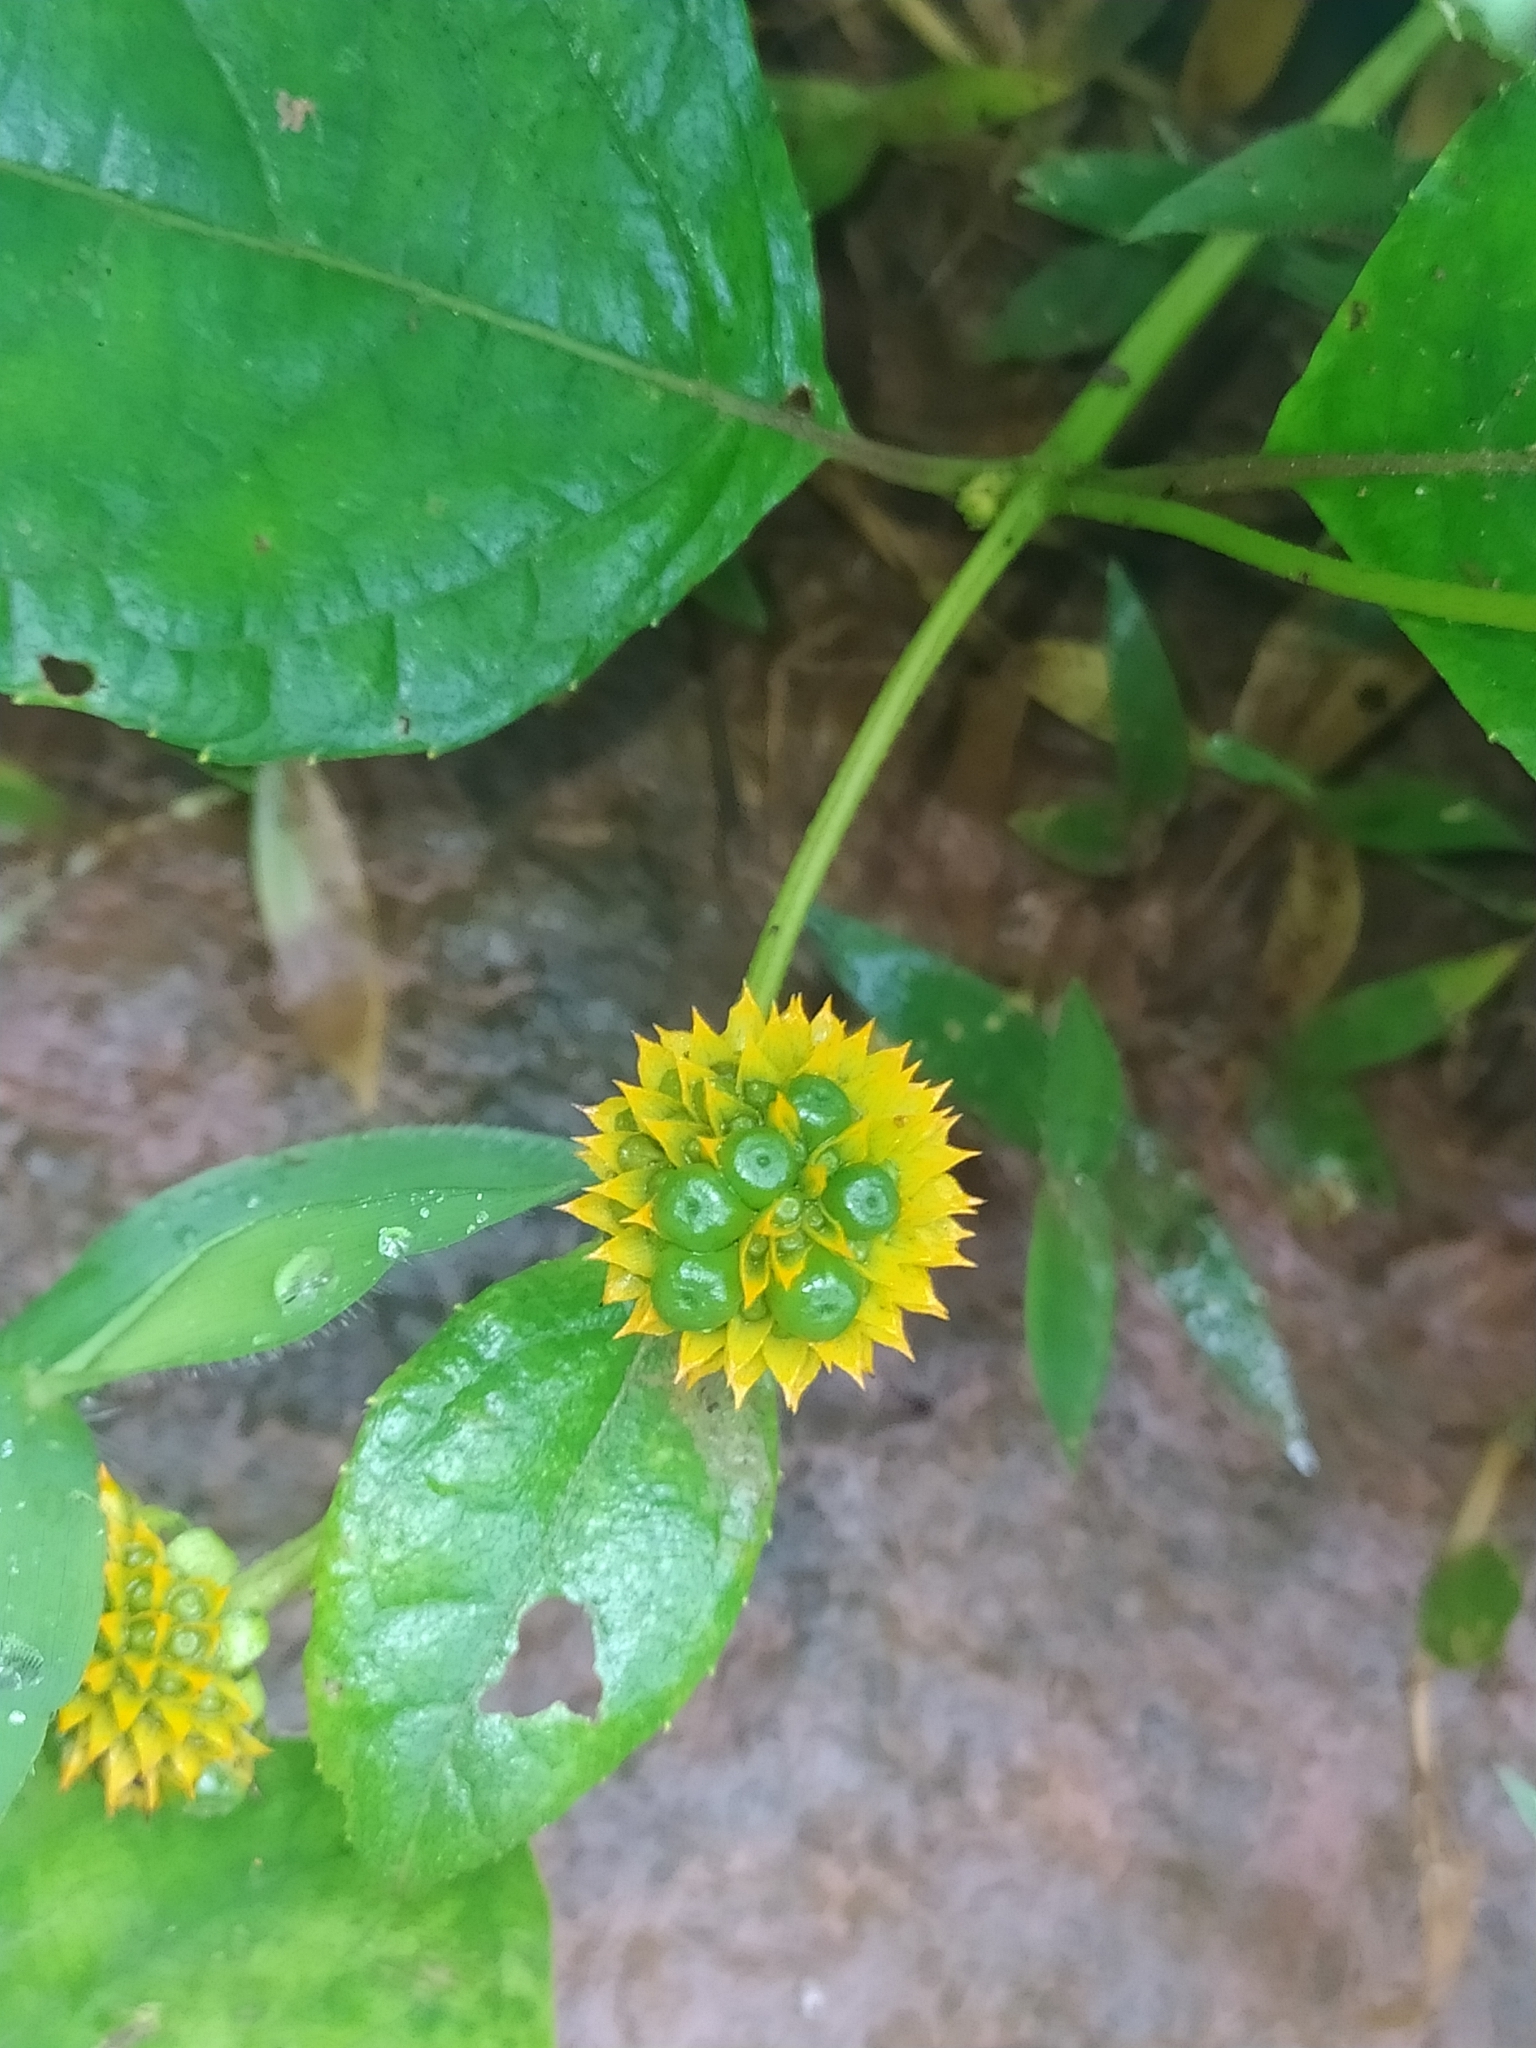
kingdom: Plantae
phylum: Tracheophyta
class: Magnoliopsida
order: Asterales
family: Asteraceae
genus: Tilesia
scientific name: Tilesia baccata
